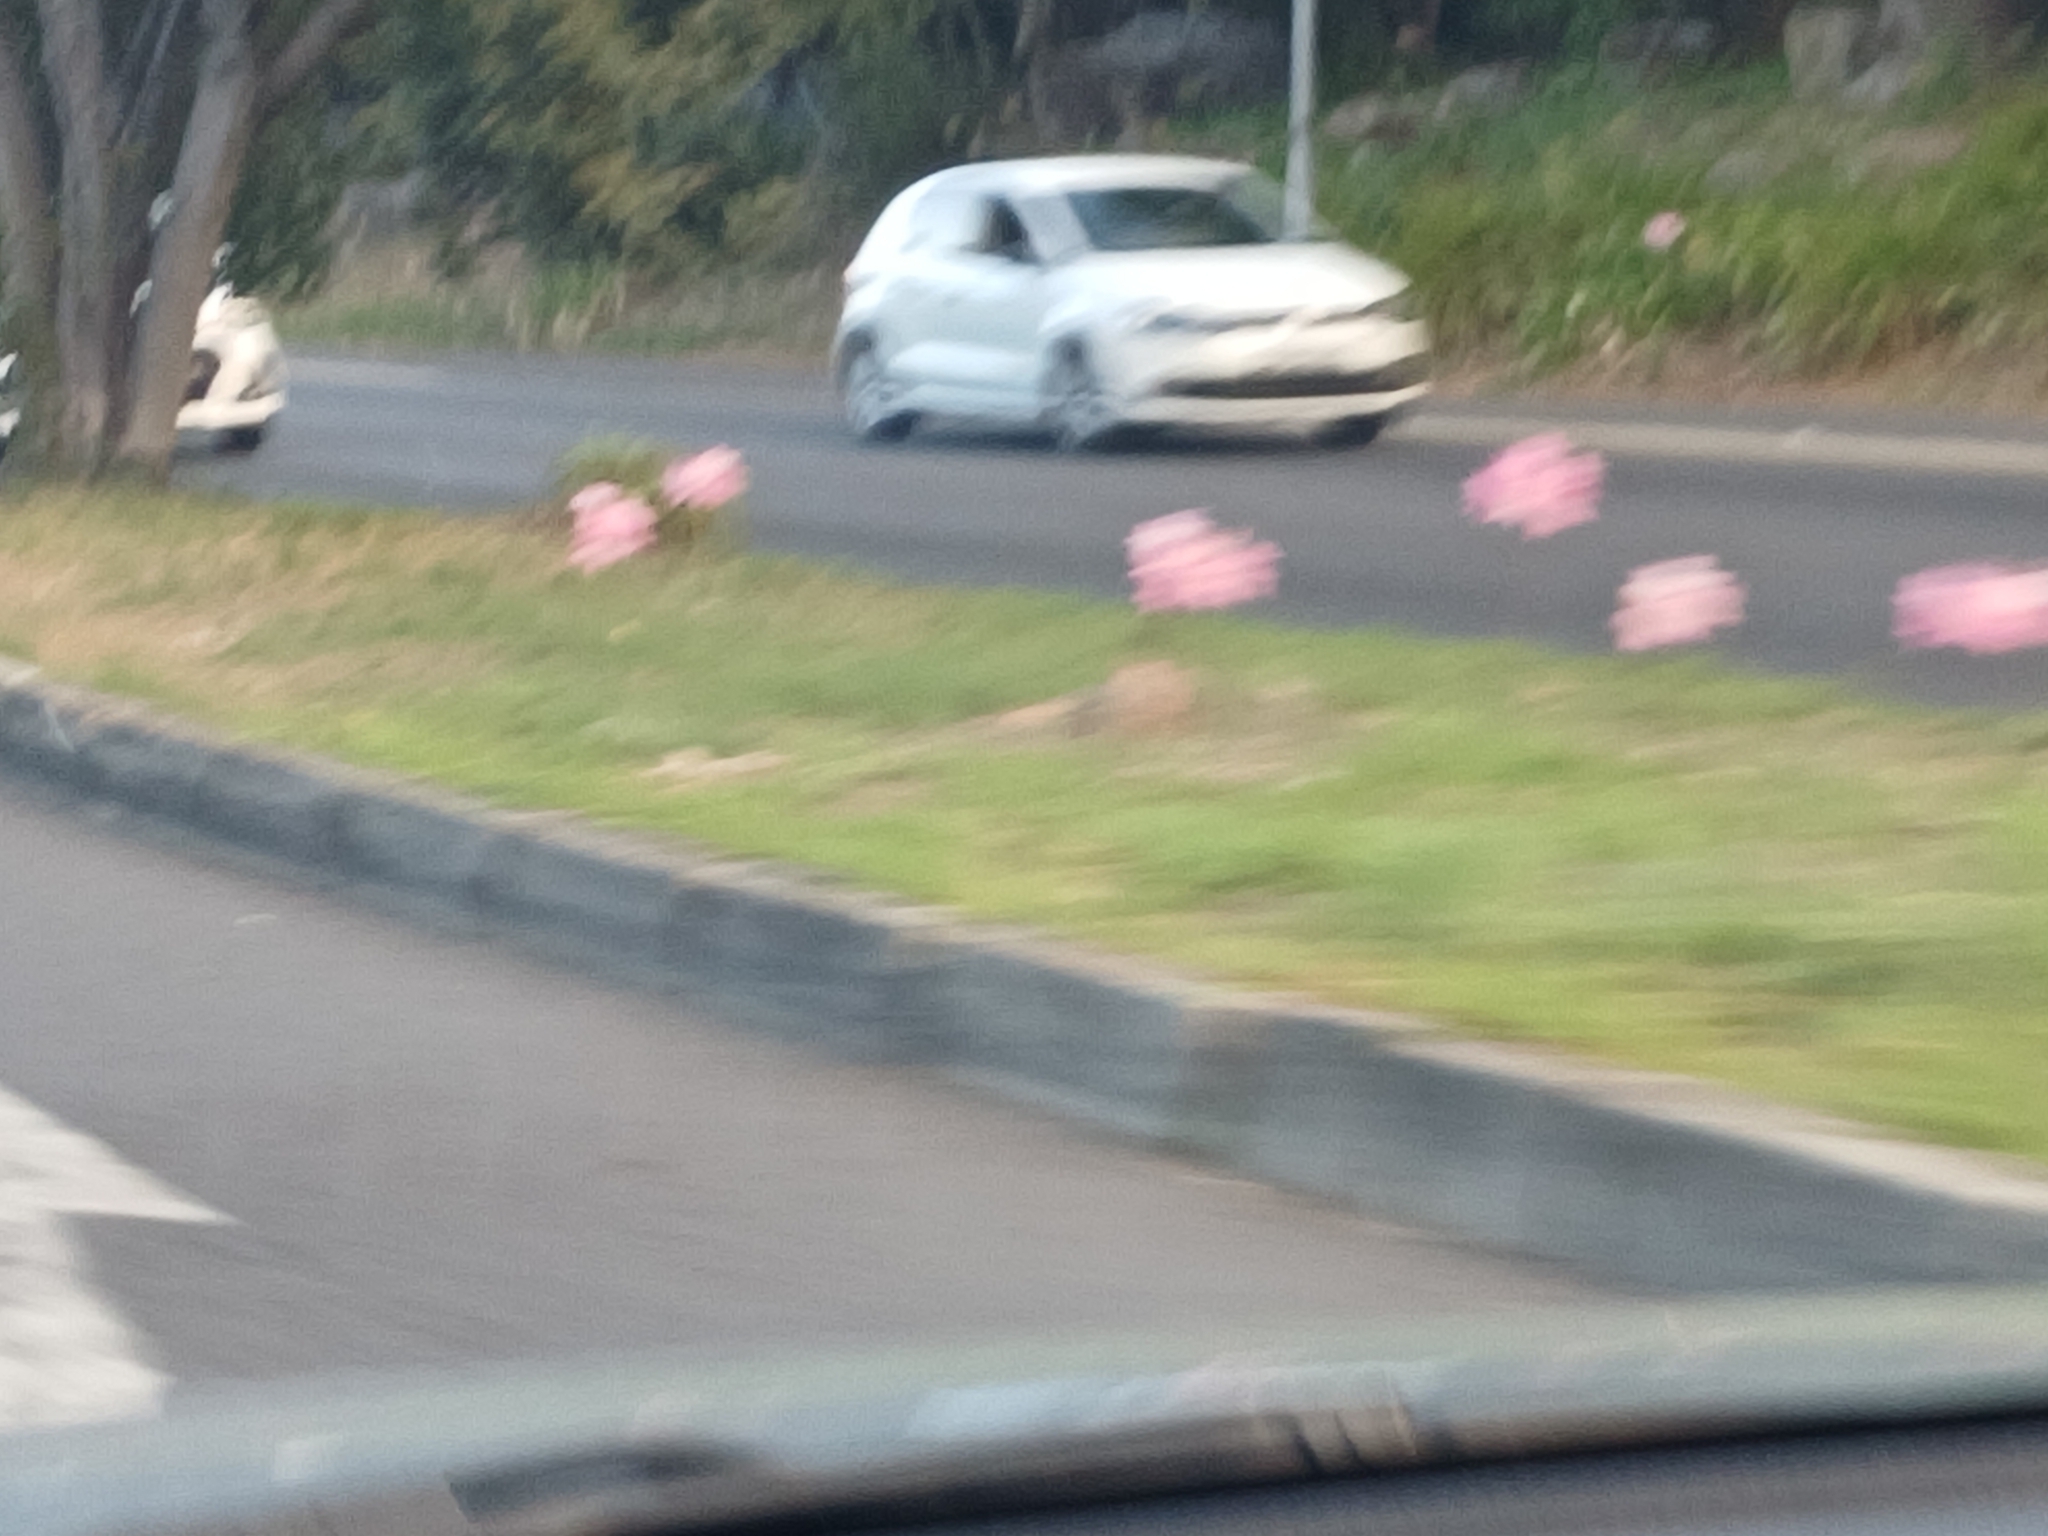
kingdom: Plantae
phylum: Tracheophyta
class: Liliopsida
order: Asparagales
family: Amaryllidaceae
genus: Amaryllis
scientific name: Amaryllis belladonna
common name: Jersey lily
